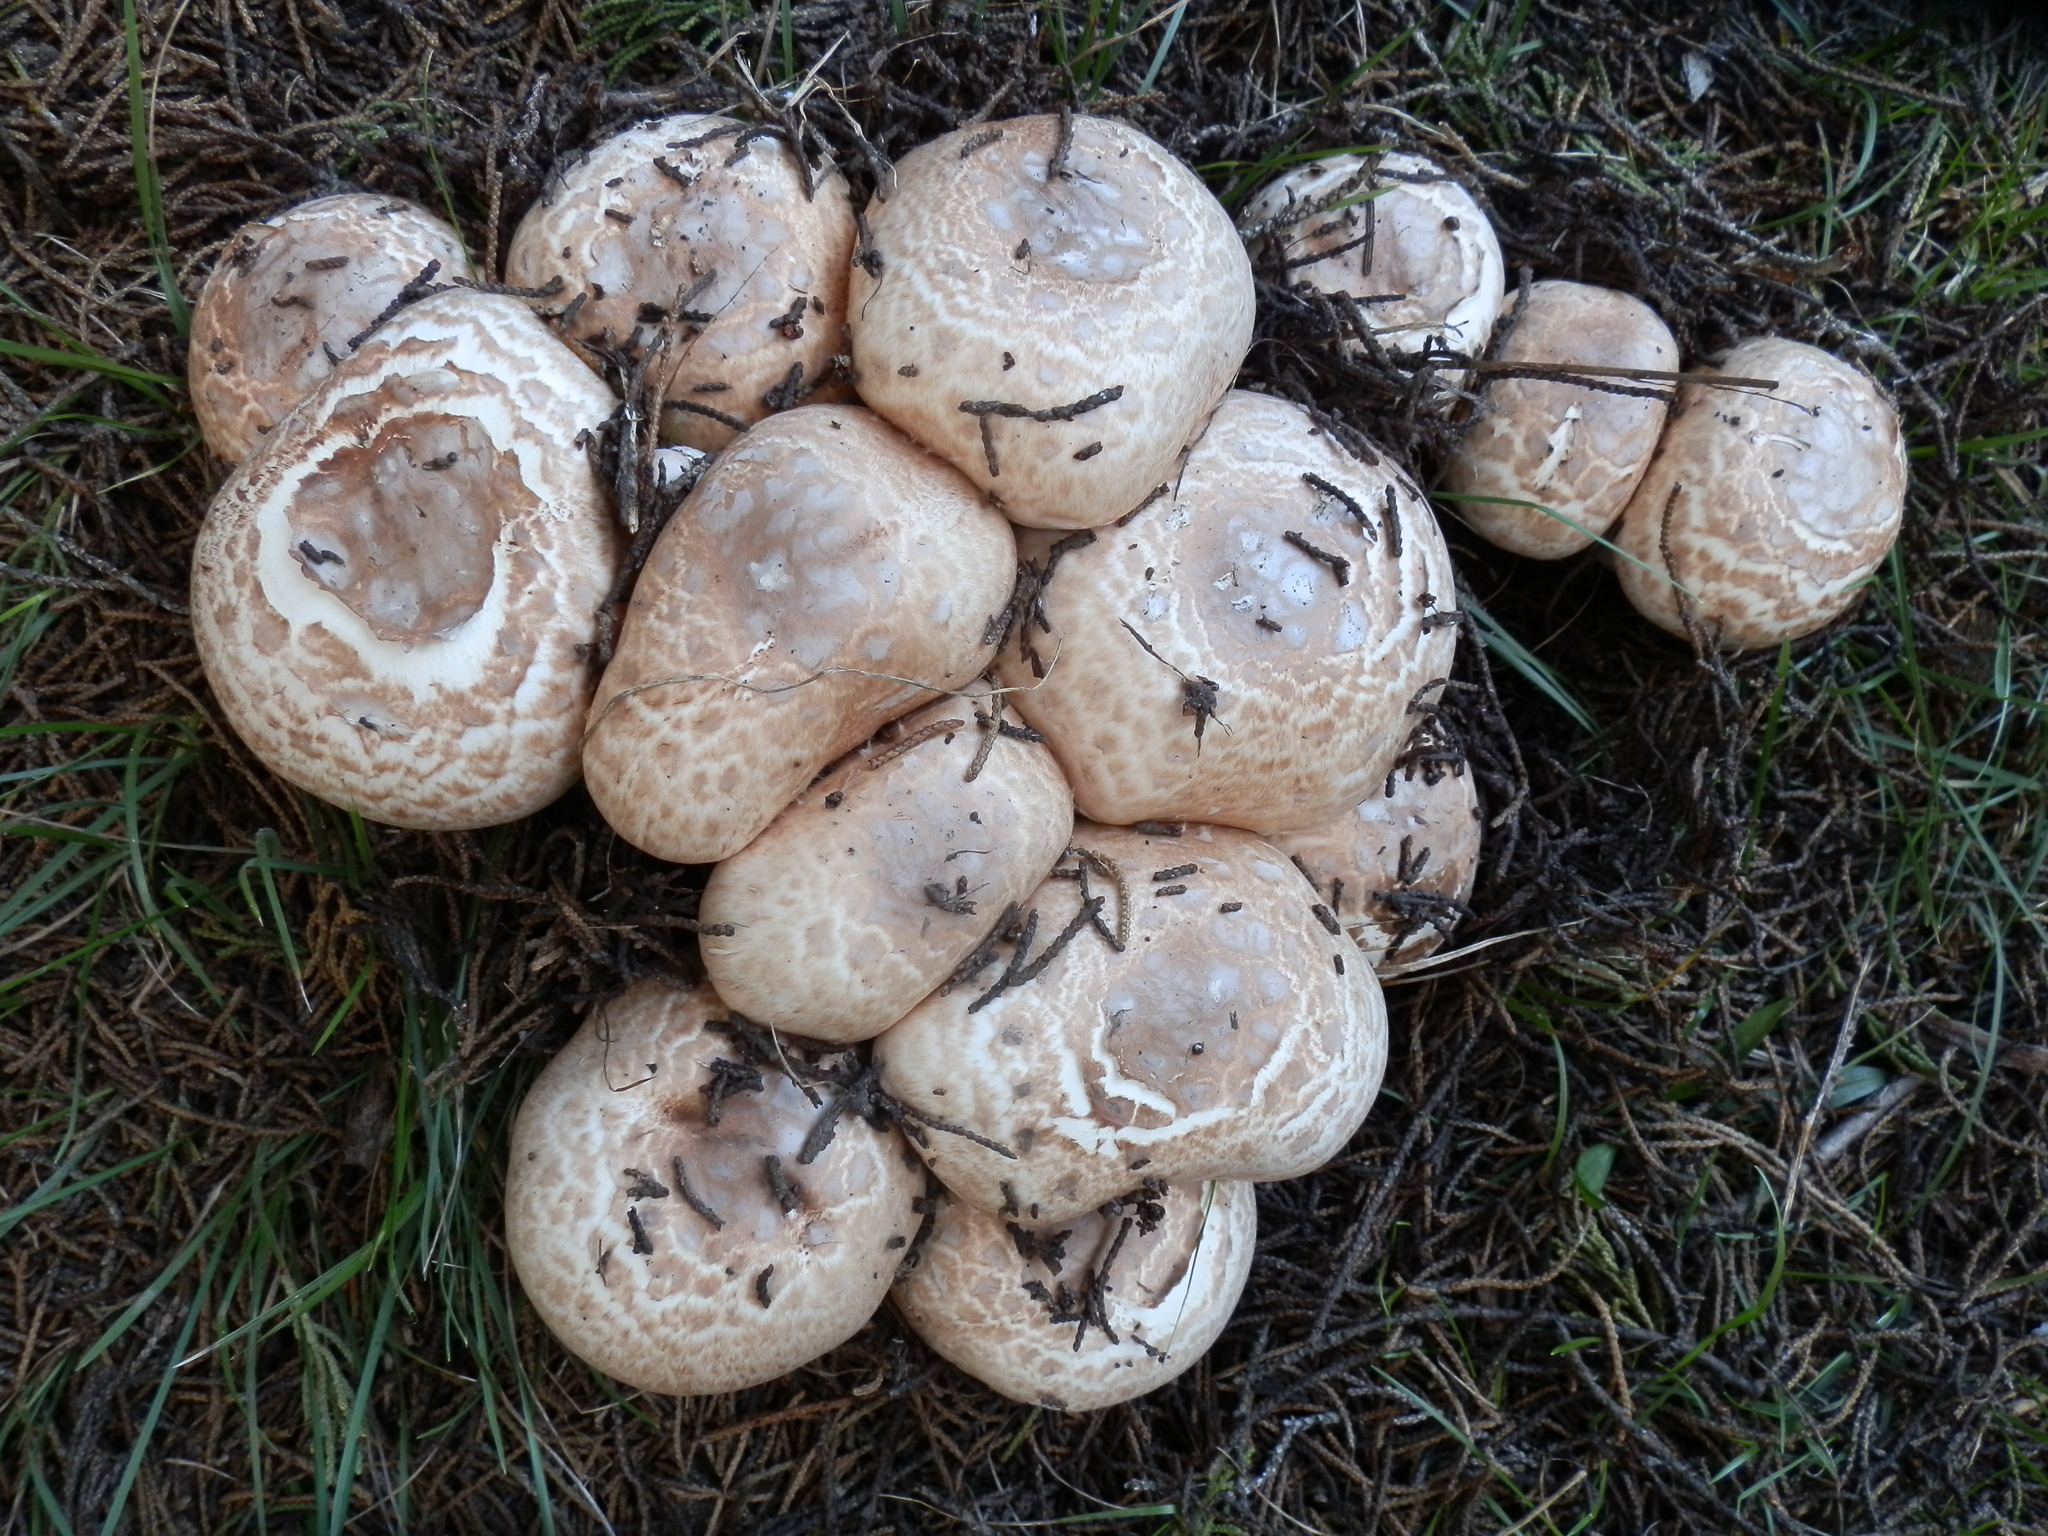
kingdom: Fungi
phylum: Basidiomycota
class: Agaricomycetes
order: Agaricales
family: Agaricaceae
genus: Agaricus
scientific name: Agaricus hondensis
